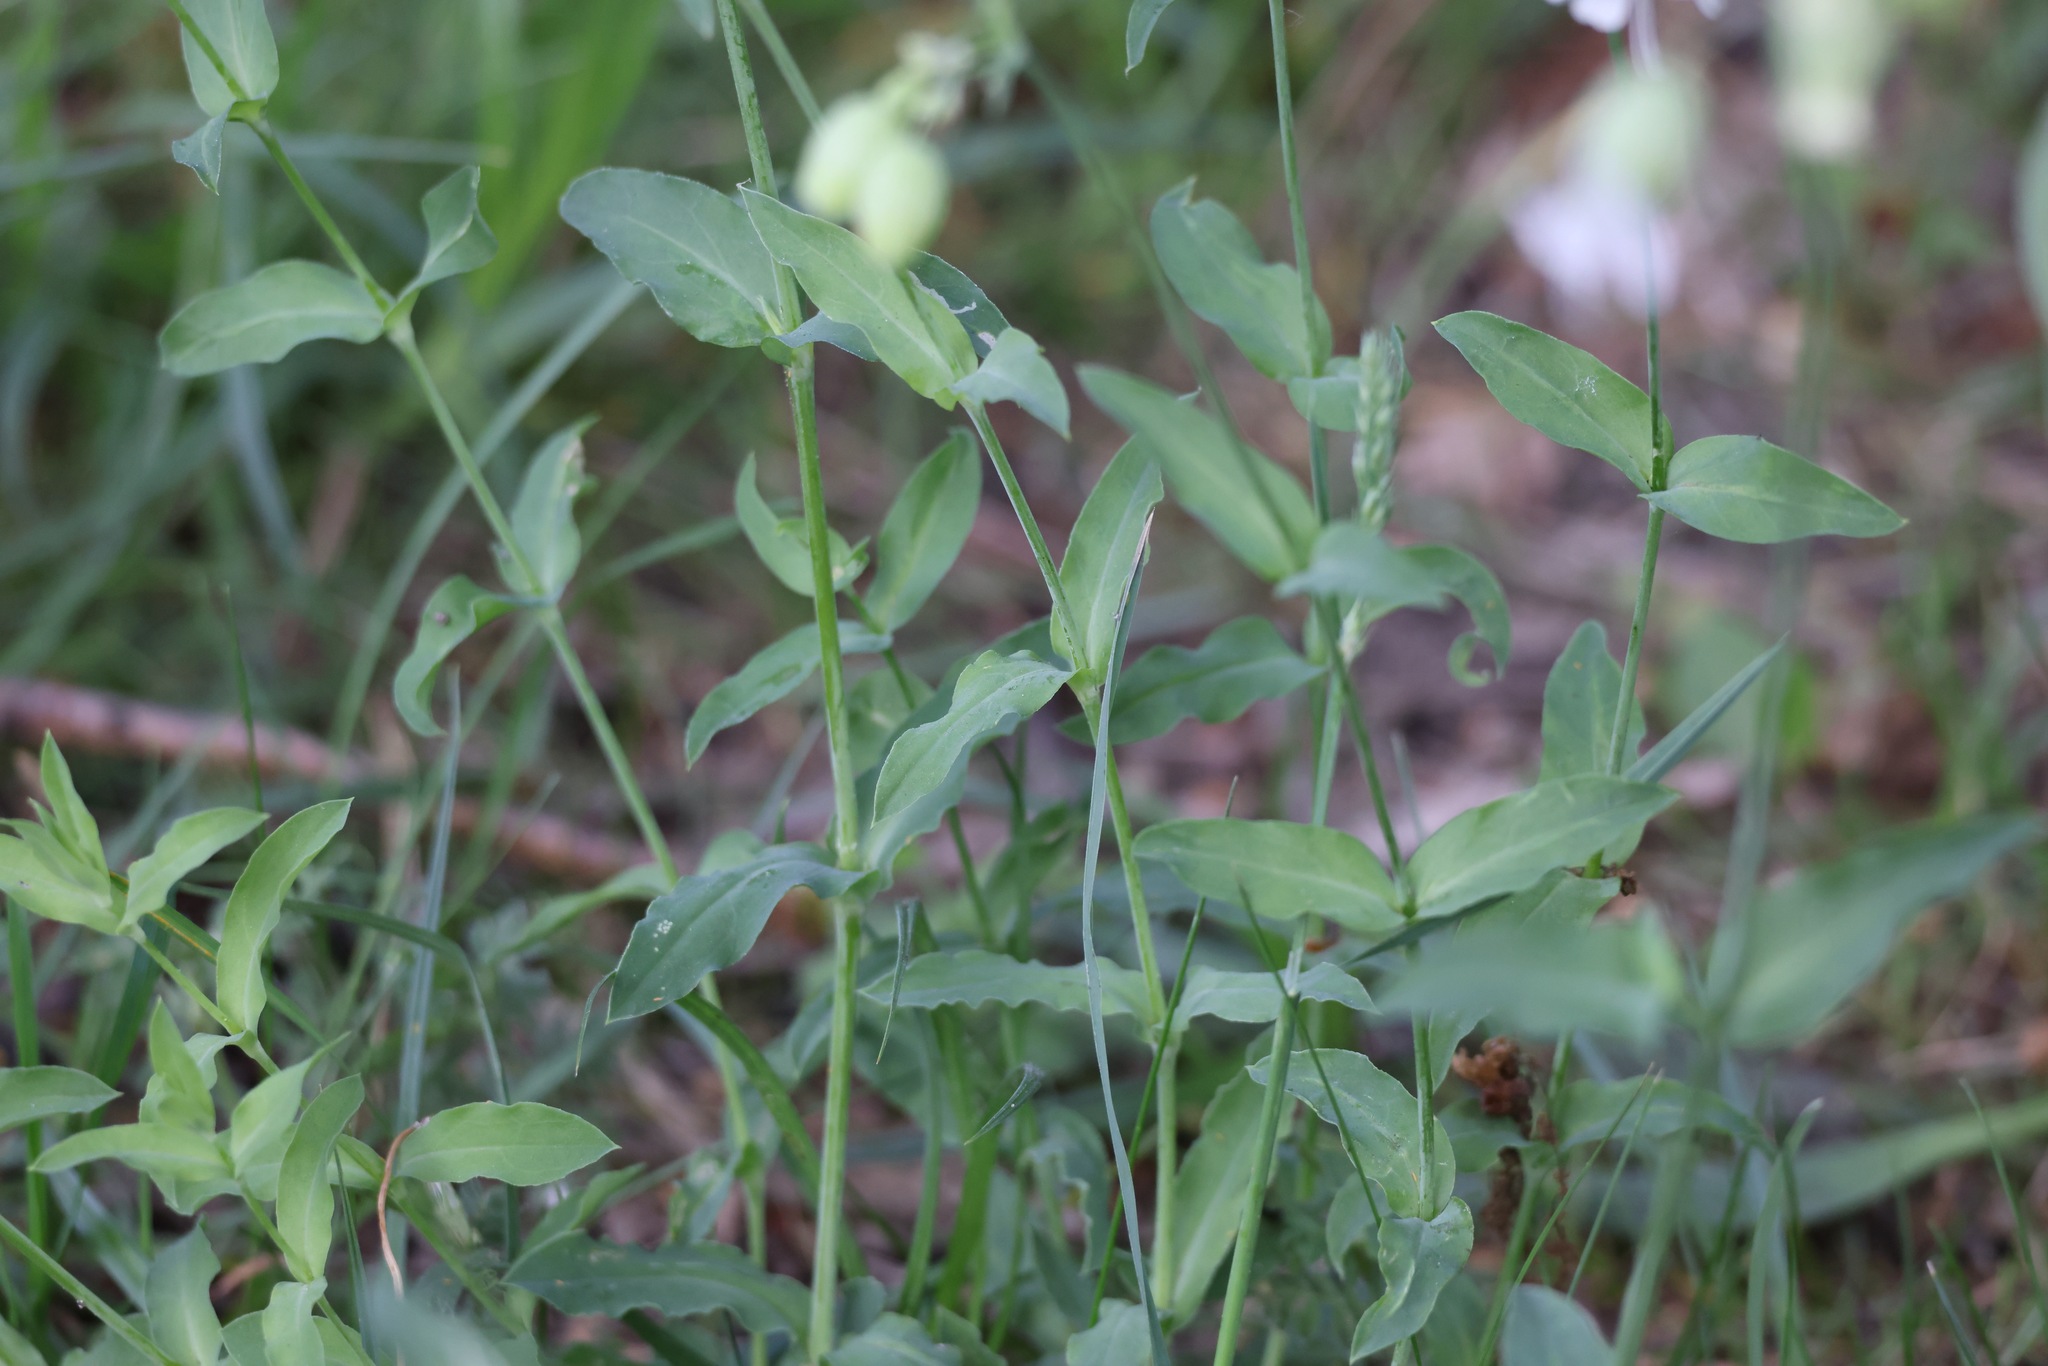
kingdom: Plantae
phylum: Tracheophyta
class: Magnoliopsida
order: Caryophyllales
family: Caryophyllaceae
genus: Silene
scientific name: Silene vulgaris
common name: Bladder campion
